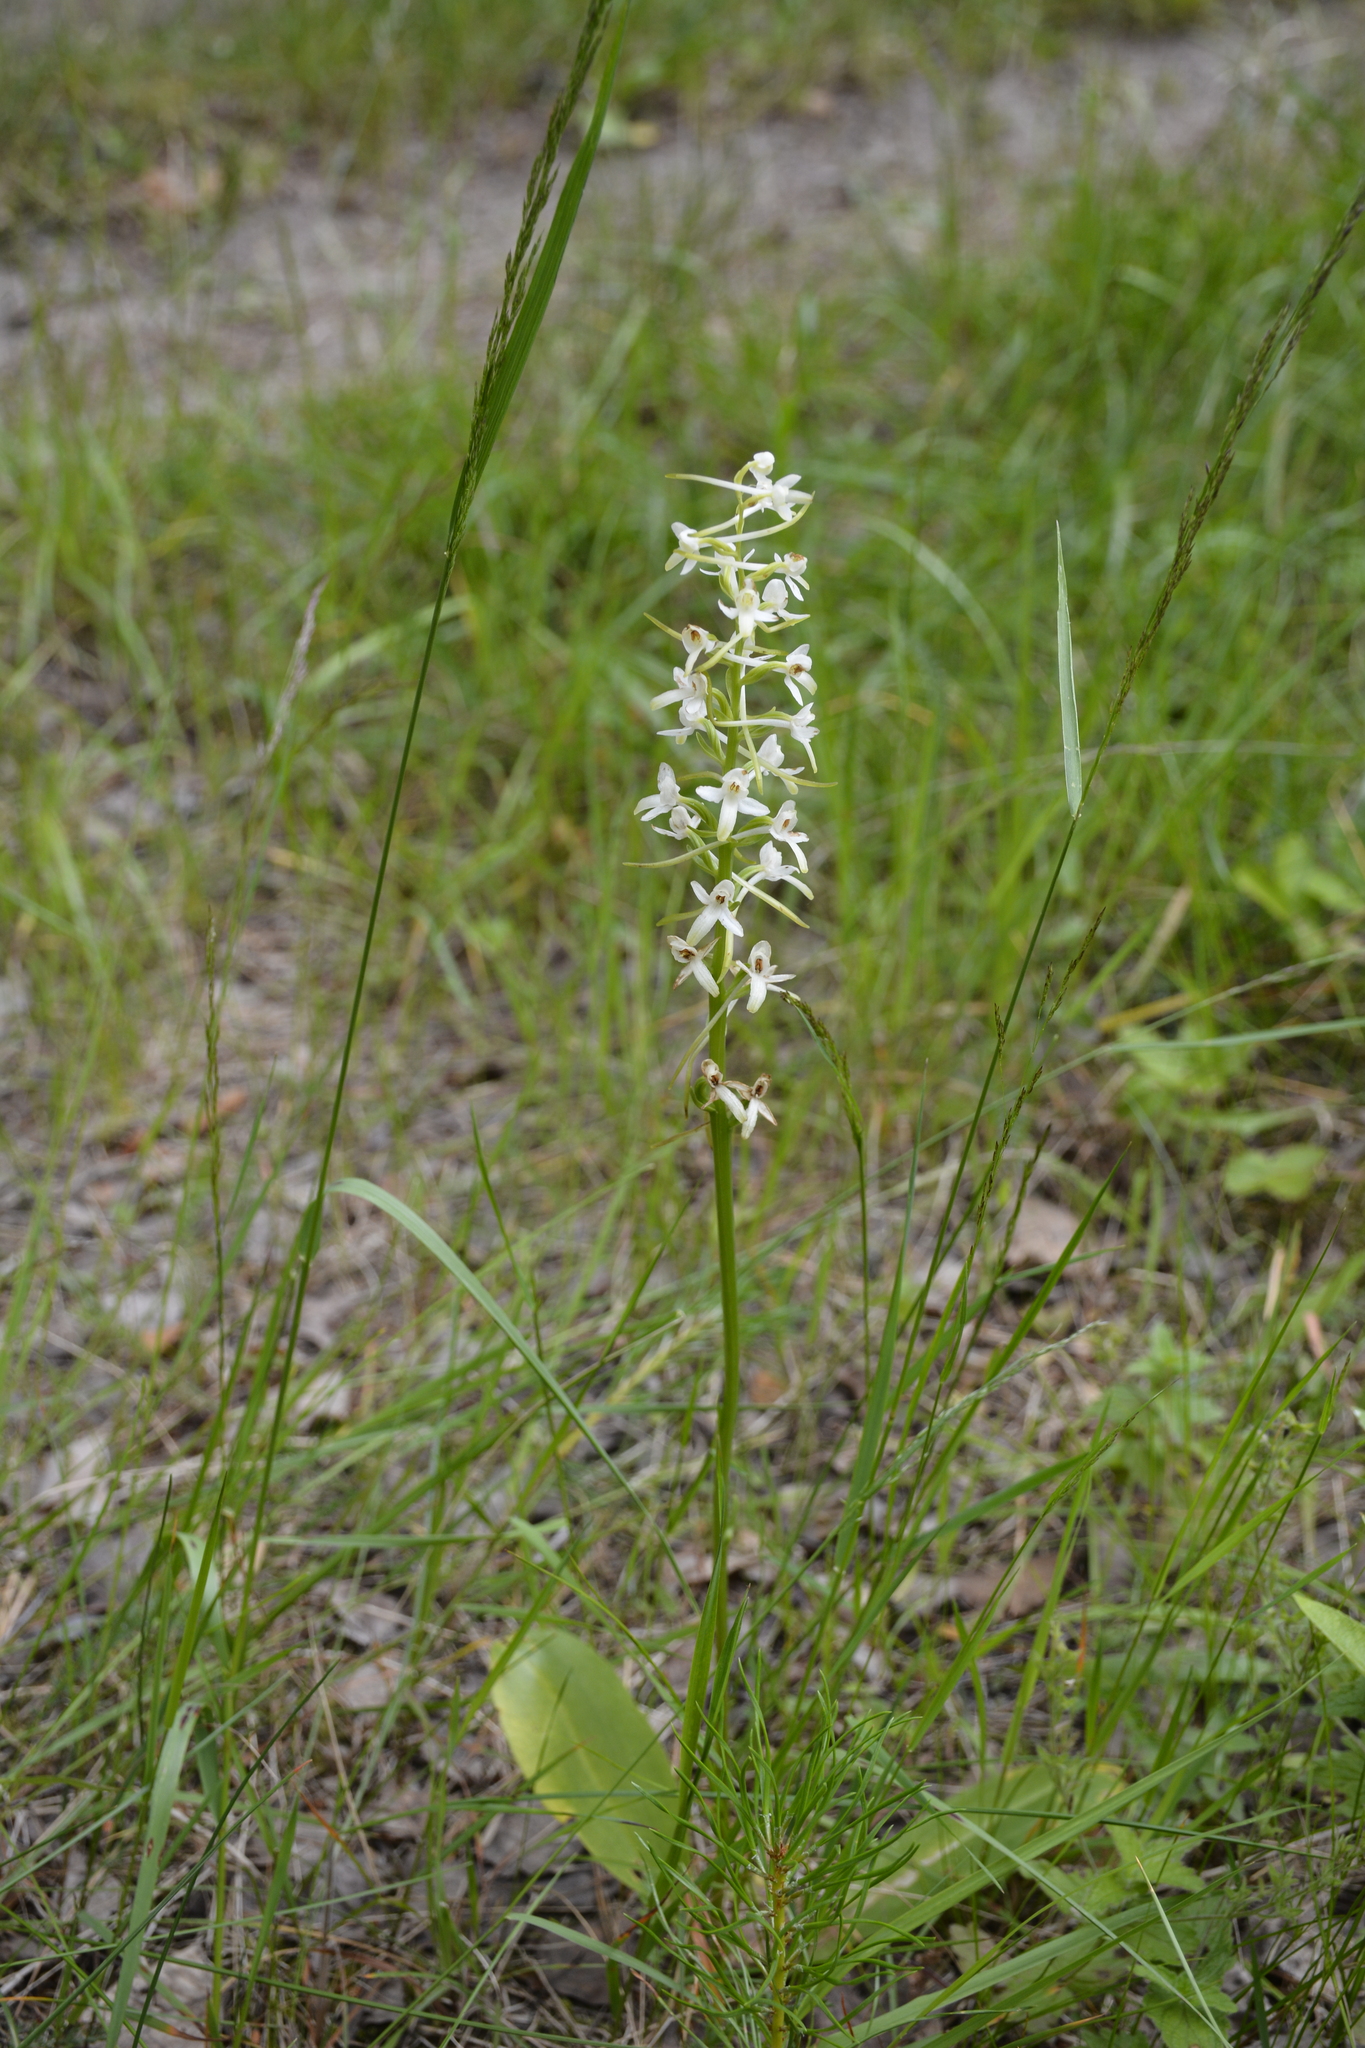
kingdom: Plantae
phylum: Tracheophyta
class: Liliopsida
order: Asparagales
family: Orchidaceae
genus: Platanthera
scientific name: Platanthera bifolia
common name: Lesser butterfly-orchid
